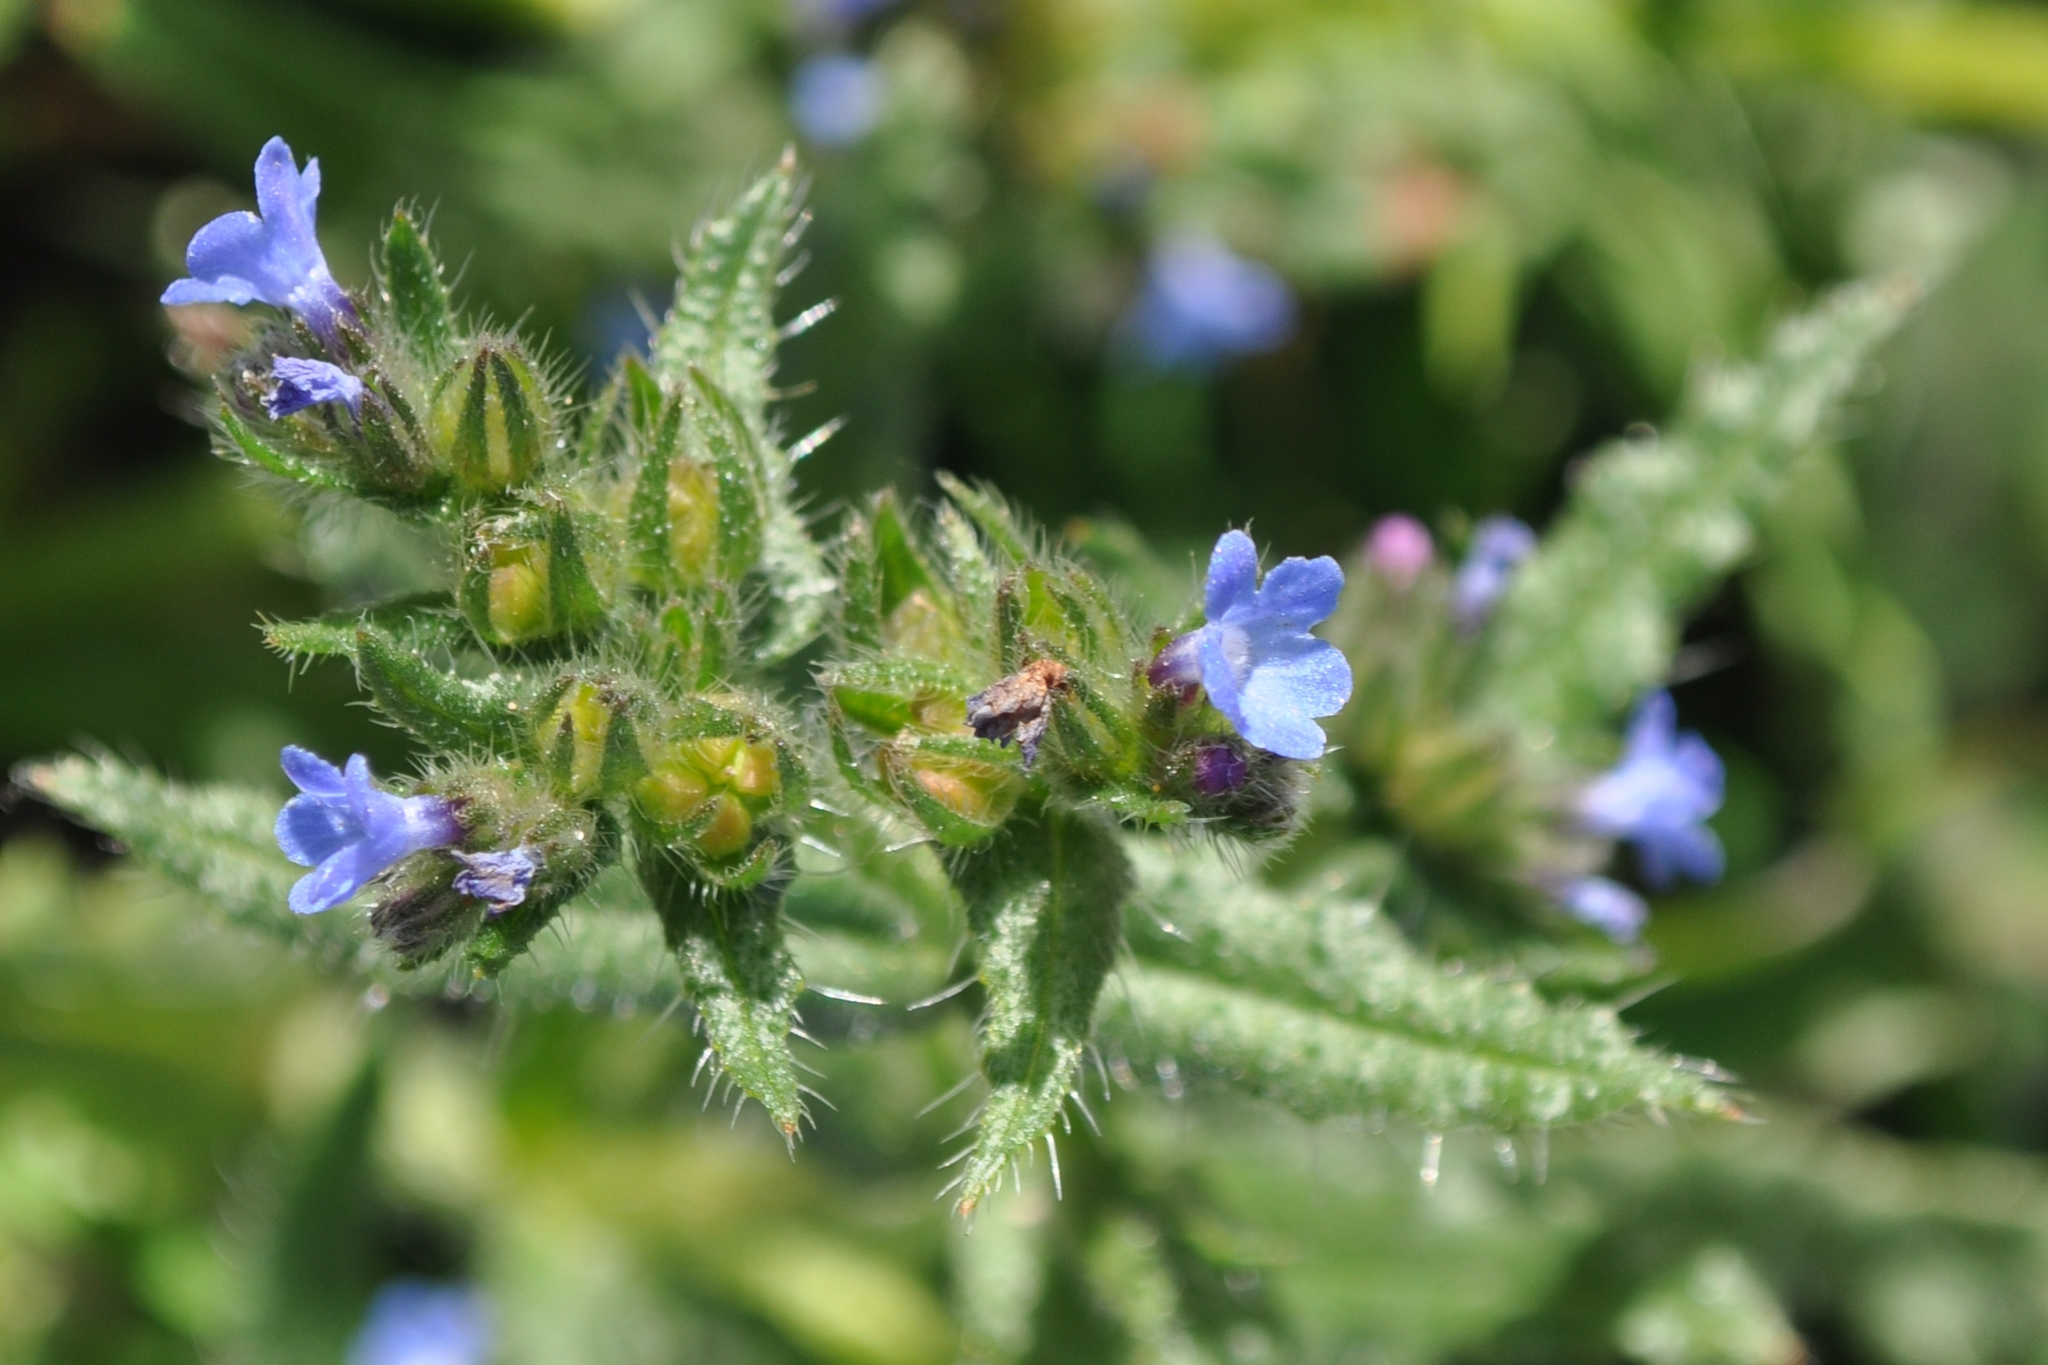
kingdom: Plantae
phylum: Tracheophyta
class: Magnoliopsida
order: Boraginales
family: Boraginaceae
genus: Lycopsis
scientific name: Lycopsis arvensis
